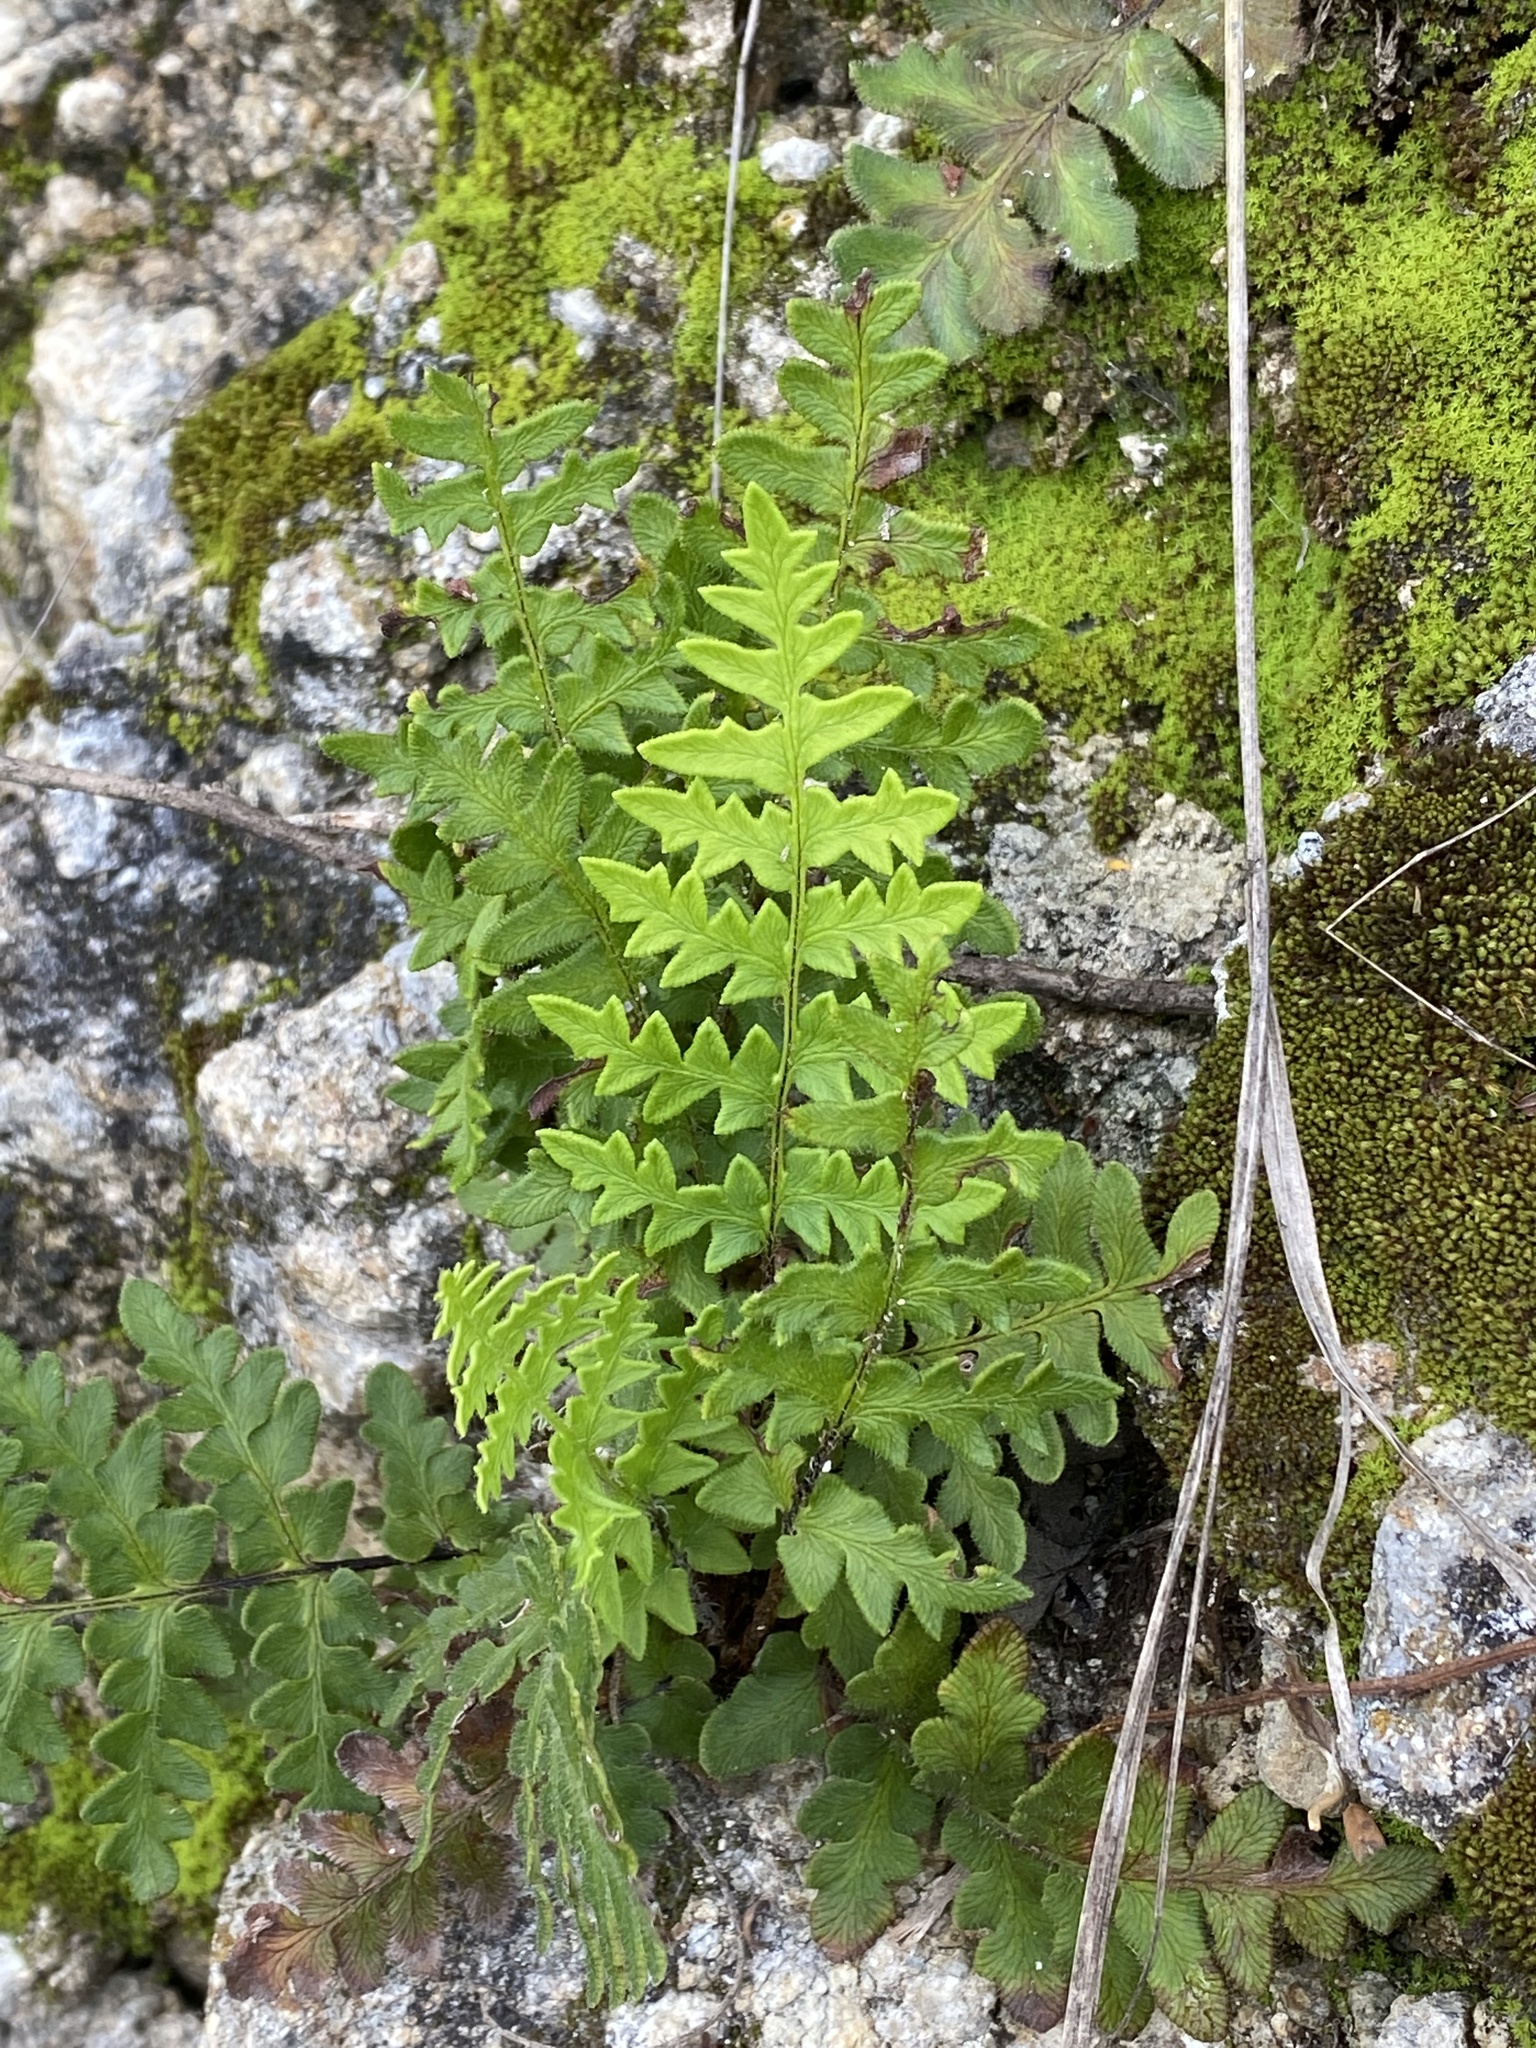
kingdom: Plantae
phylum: Tracheophyta
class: Polypodiopsida
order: Polypodiales
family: Pteridaceae
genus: Cheiloplecton
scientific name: Cheiloplecton rigidum
